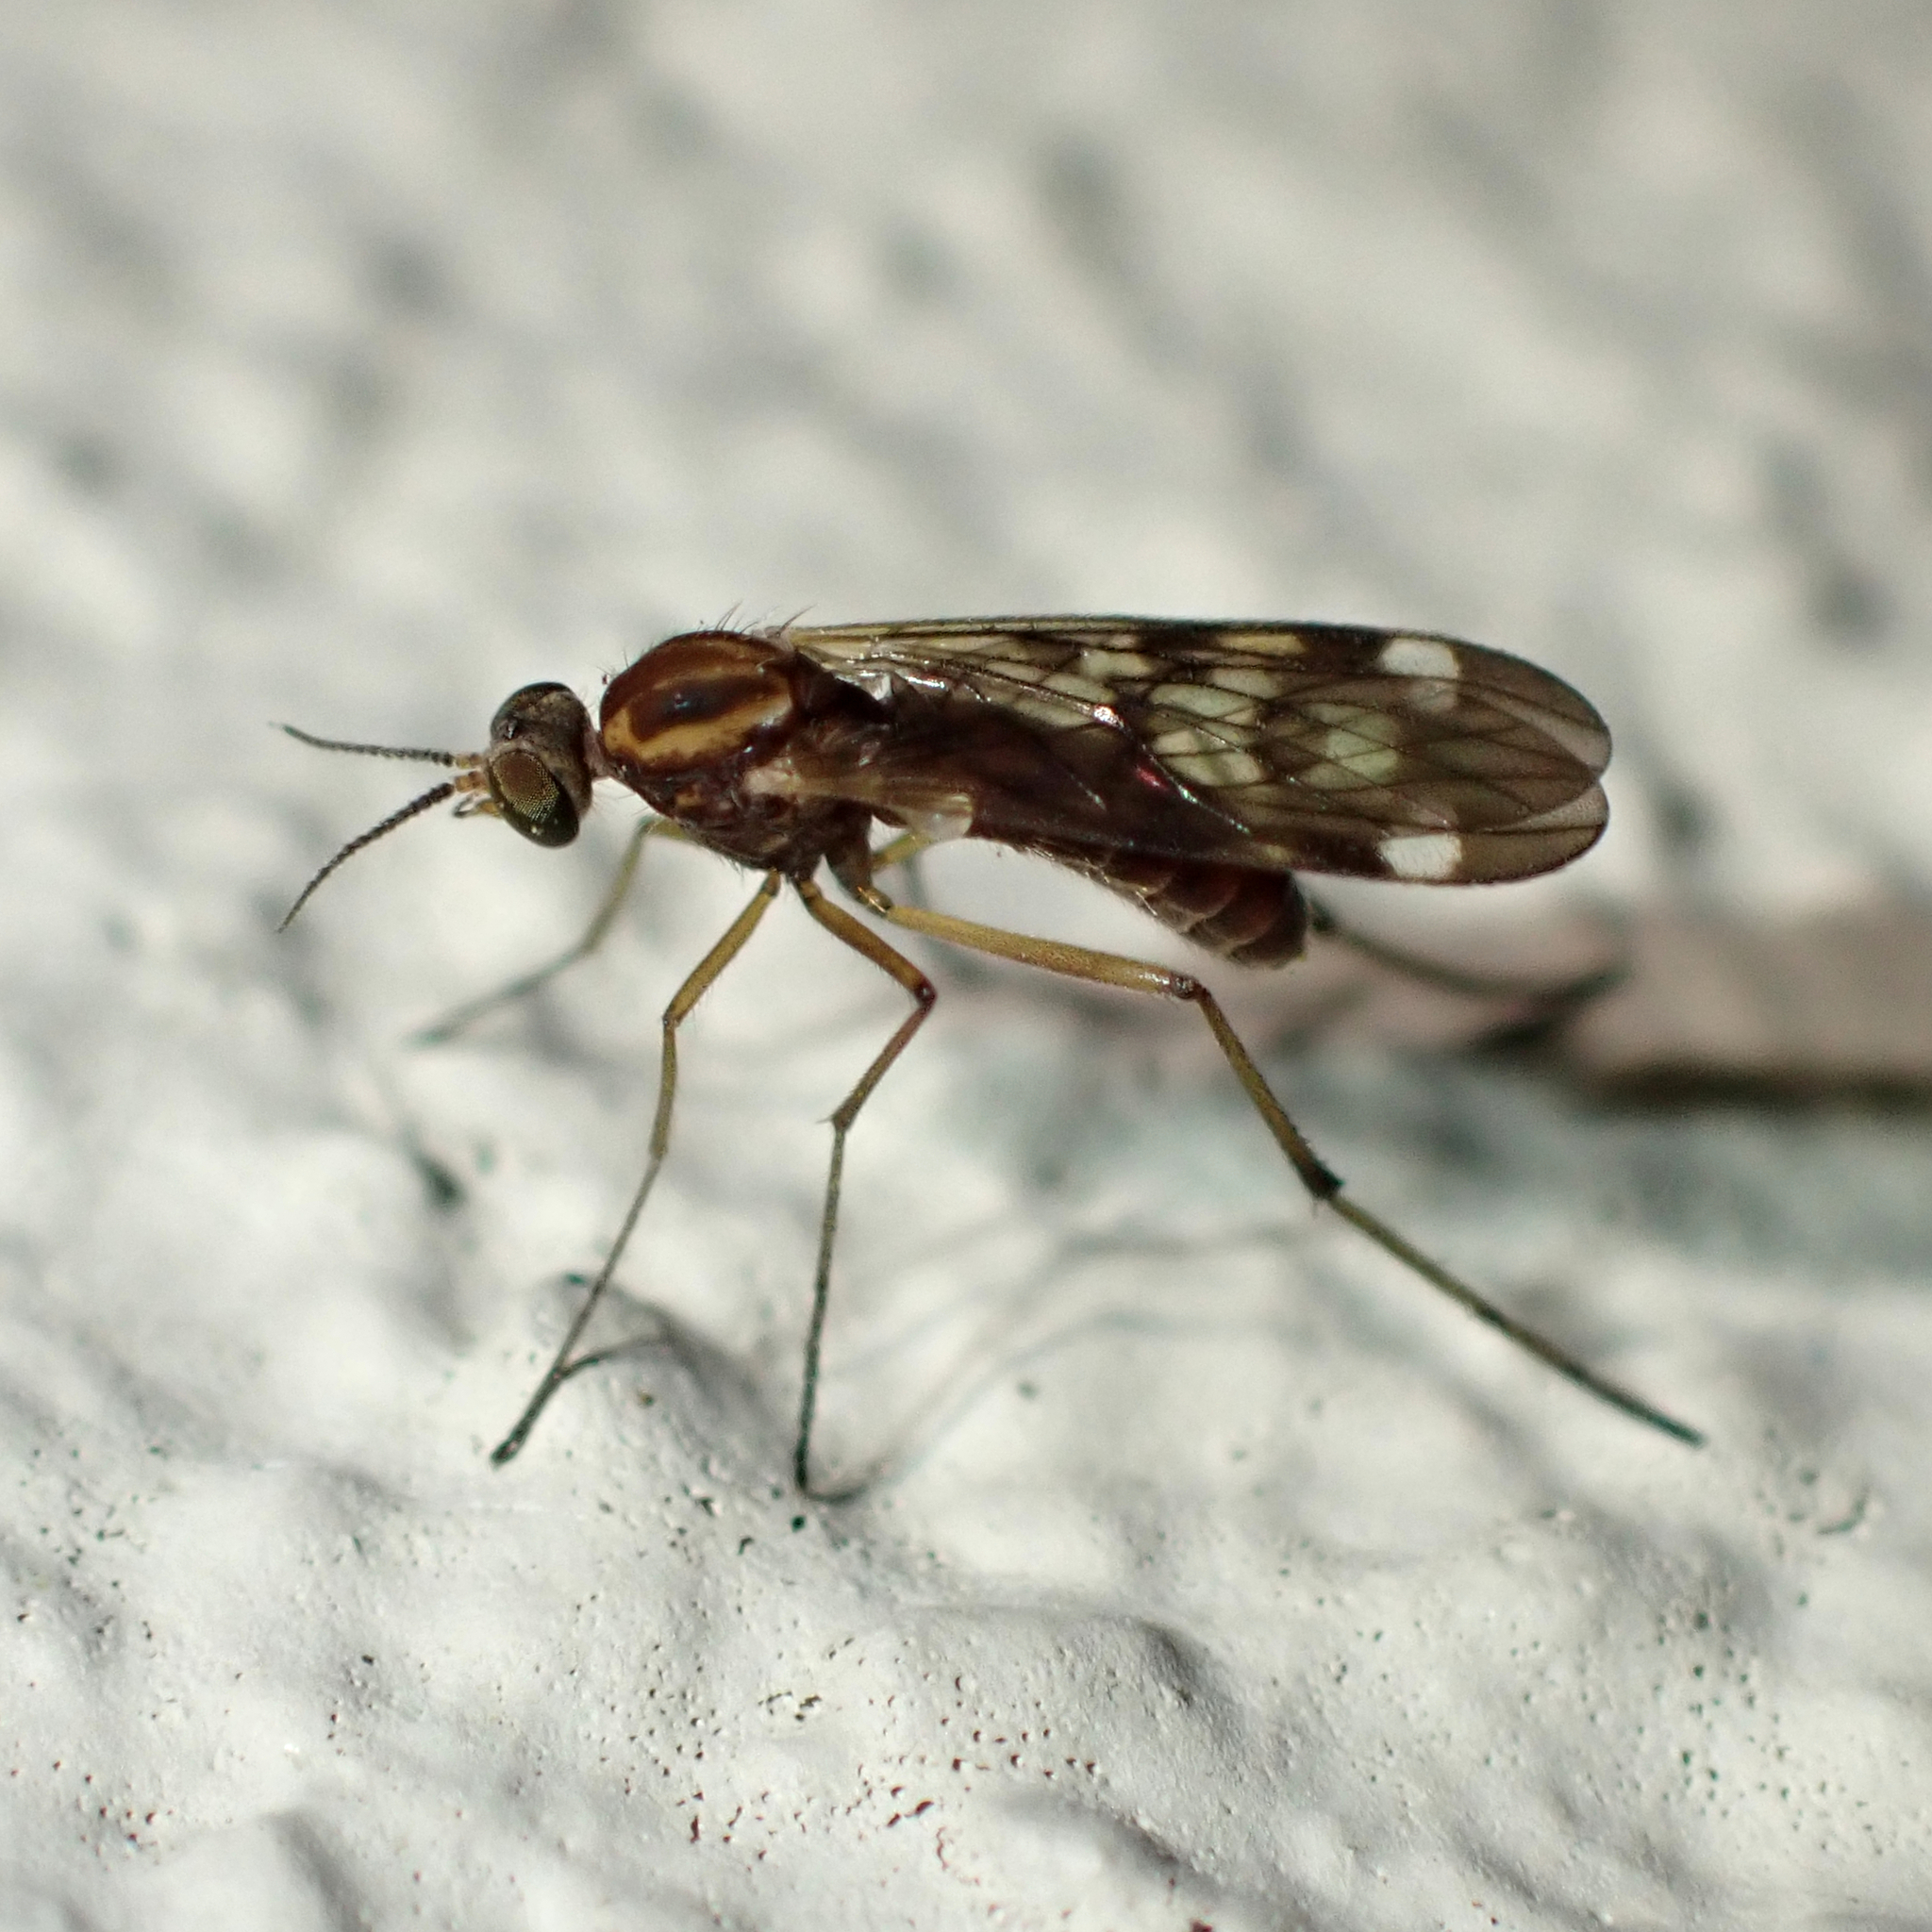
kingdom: Animalia
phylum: Arthropoda
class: Insecta
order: Diptera
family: Anisopodidae
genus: Sylvicola
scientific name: Sylvicola notatus
